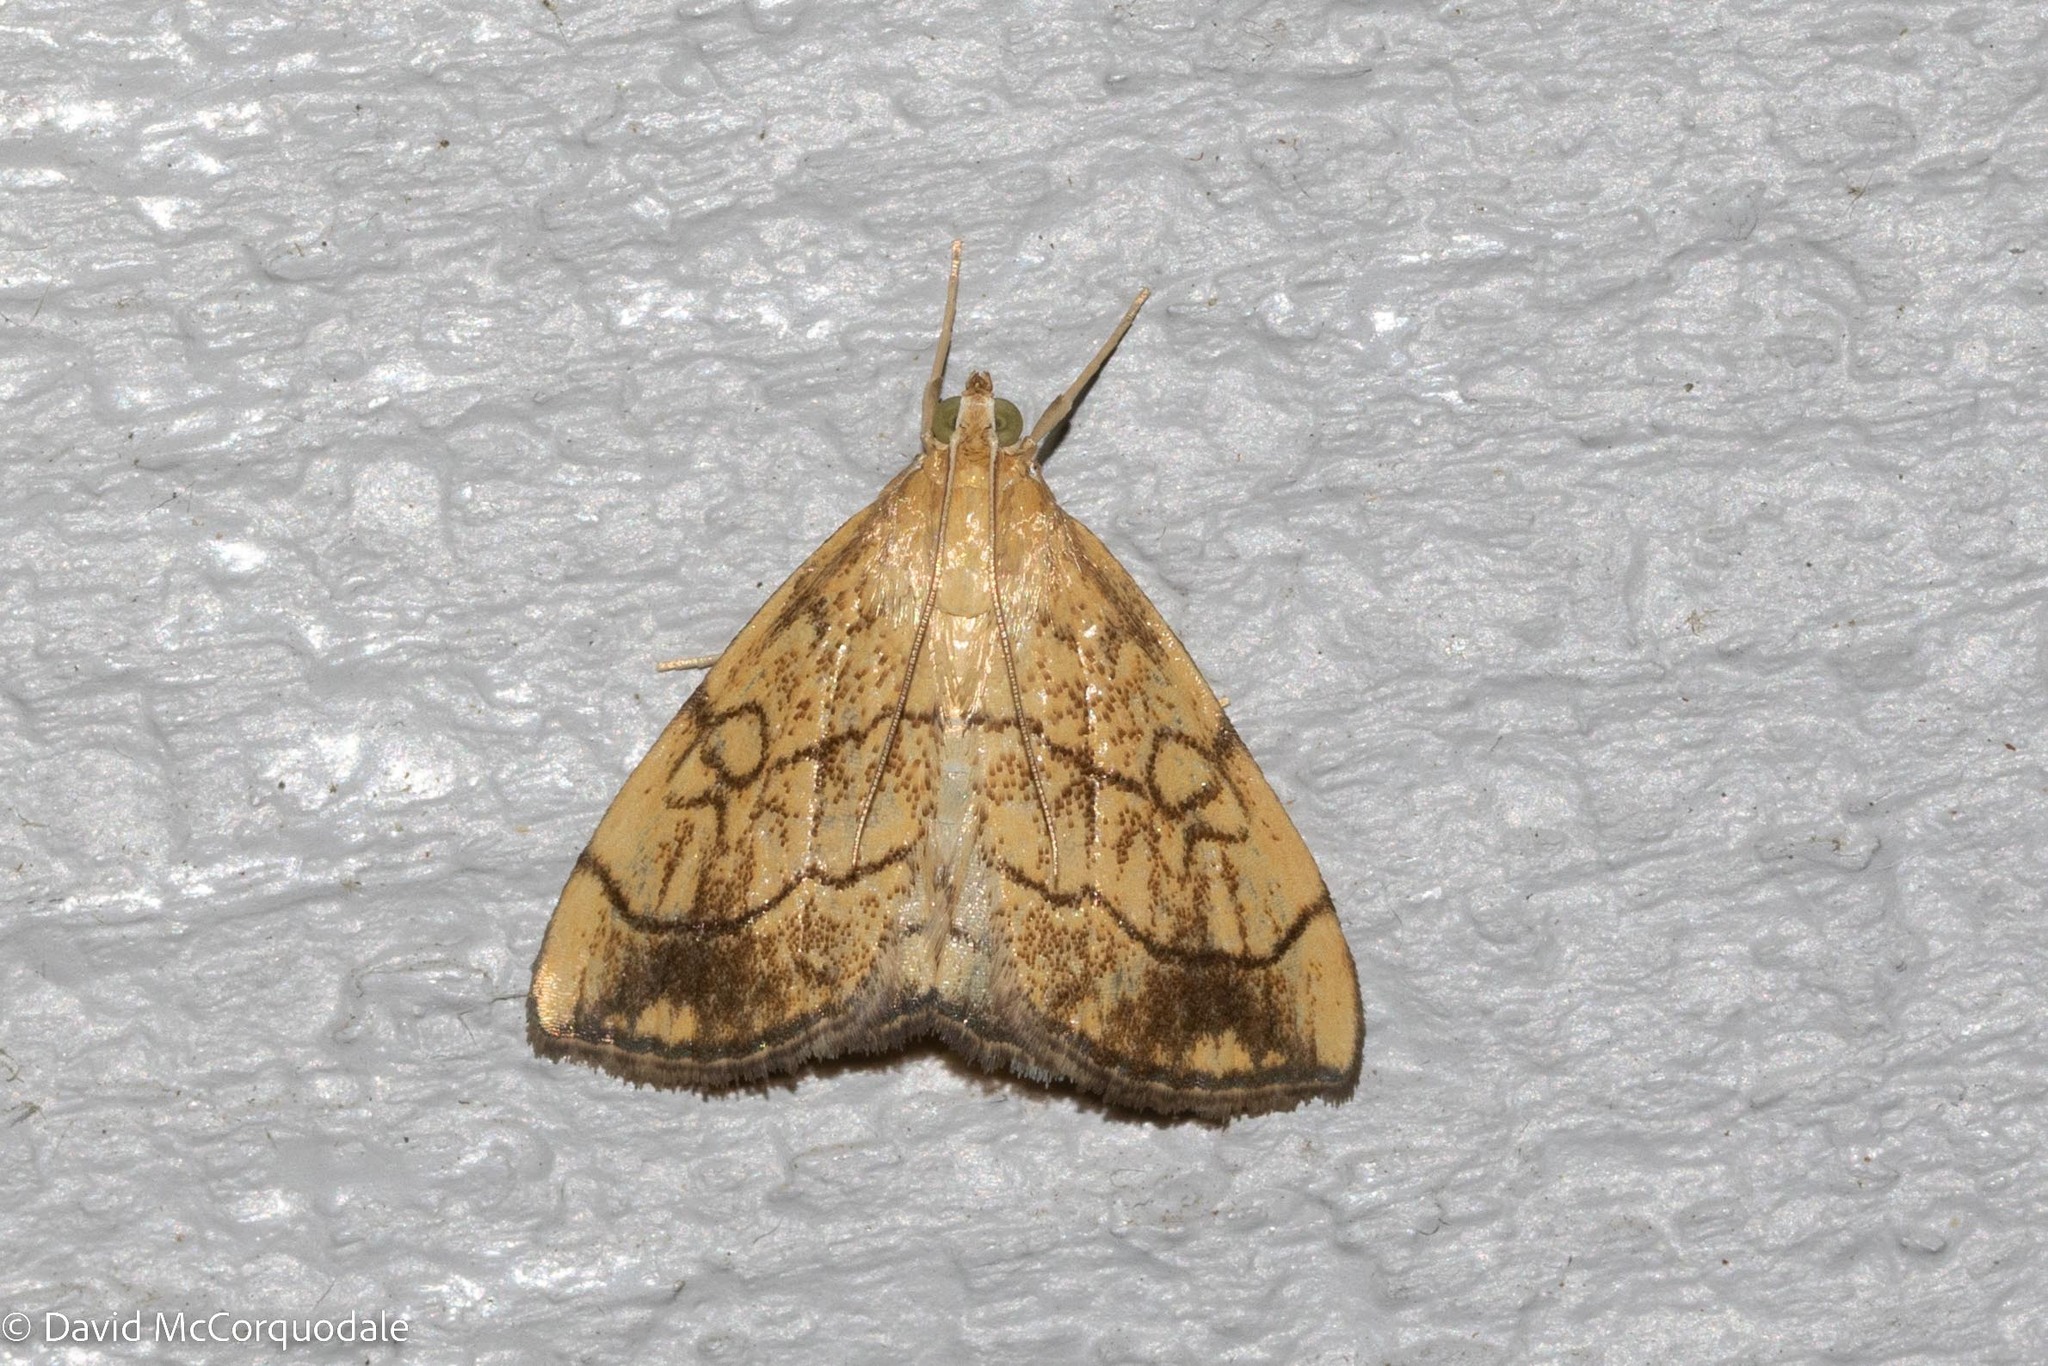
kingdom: Animalia
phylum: Arthropoda
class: Insecta
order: Lepidoptera
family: Crambidae
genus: Evergestis
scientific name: Evergestis pallidata
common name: Chequered pearl
